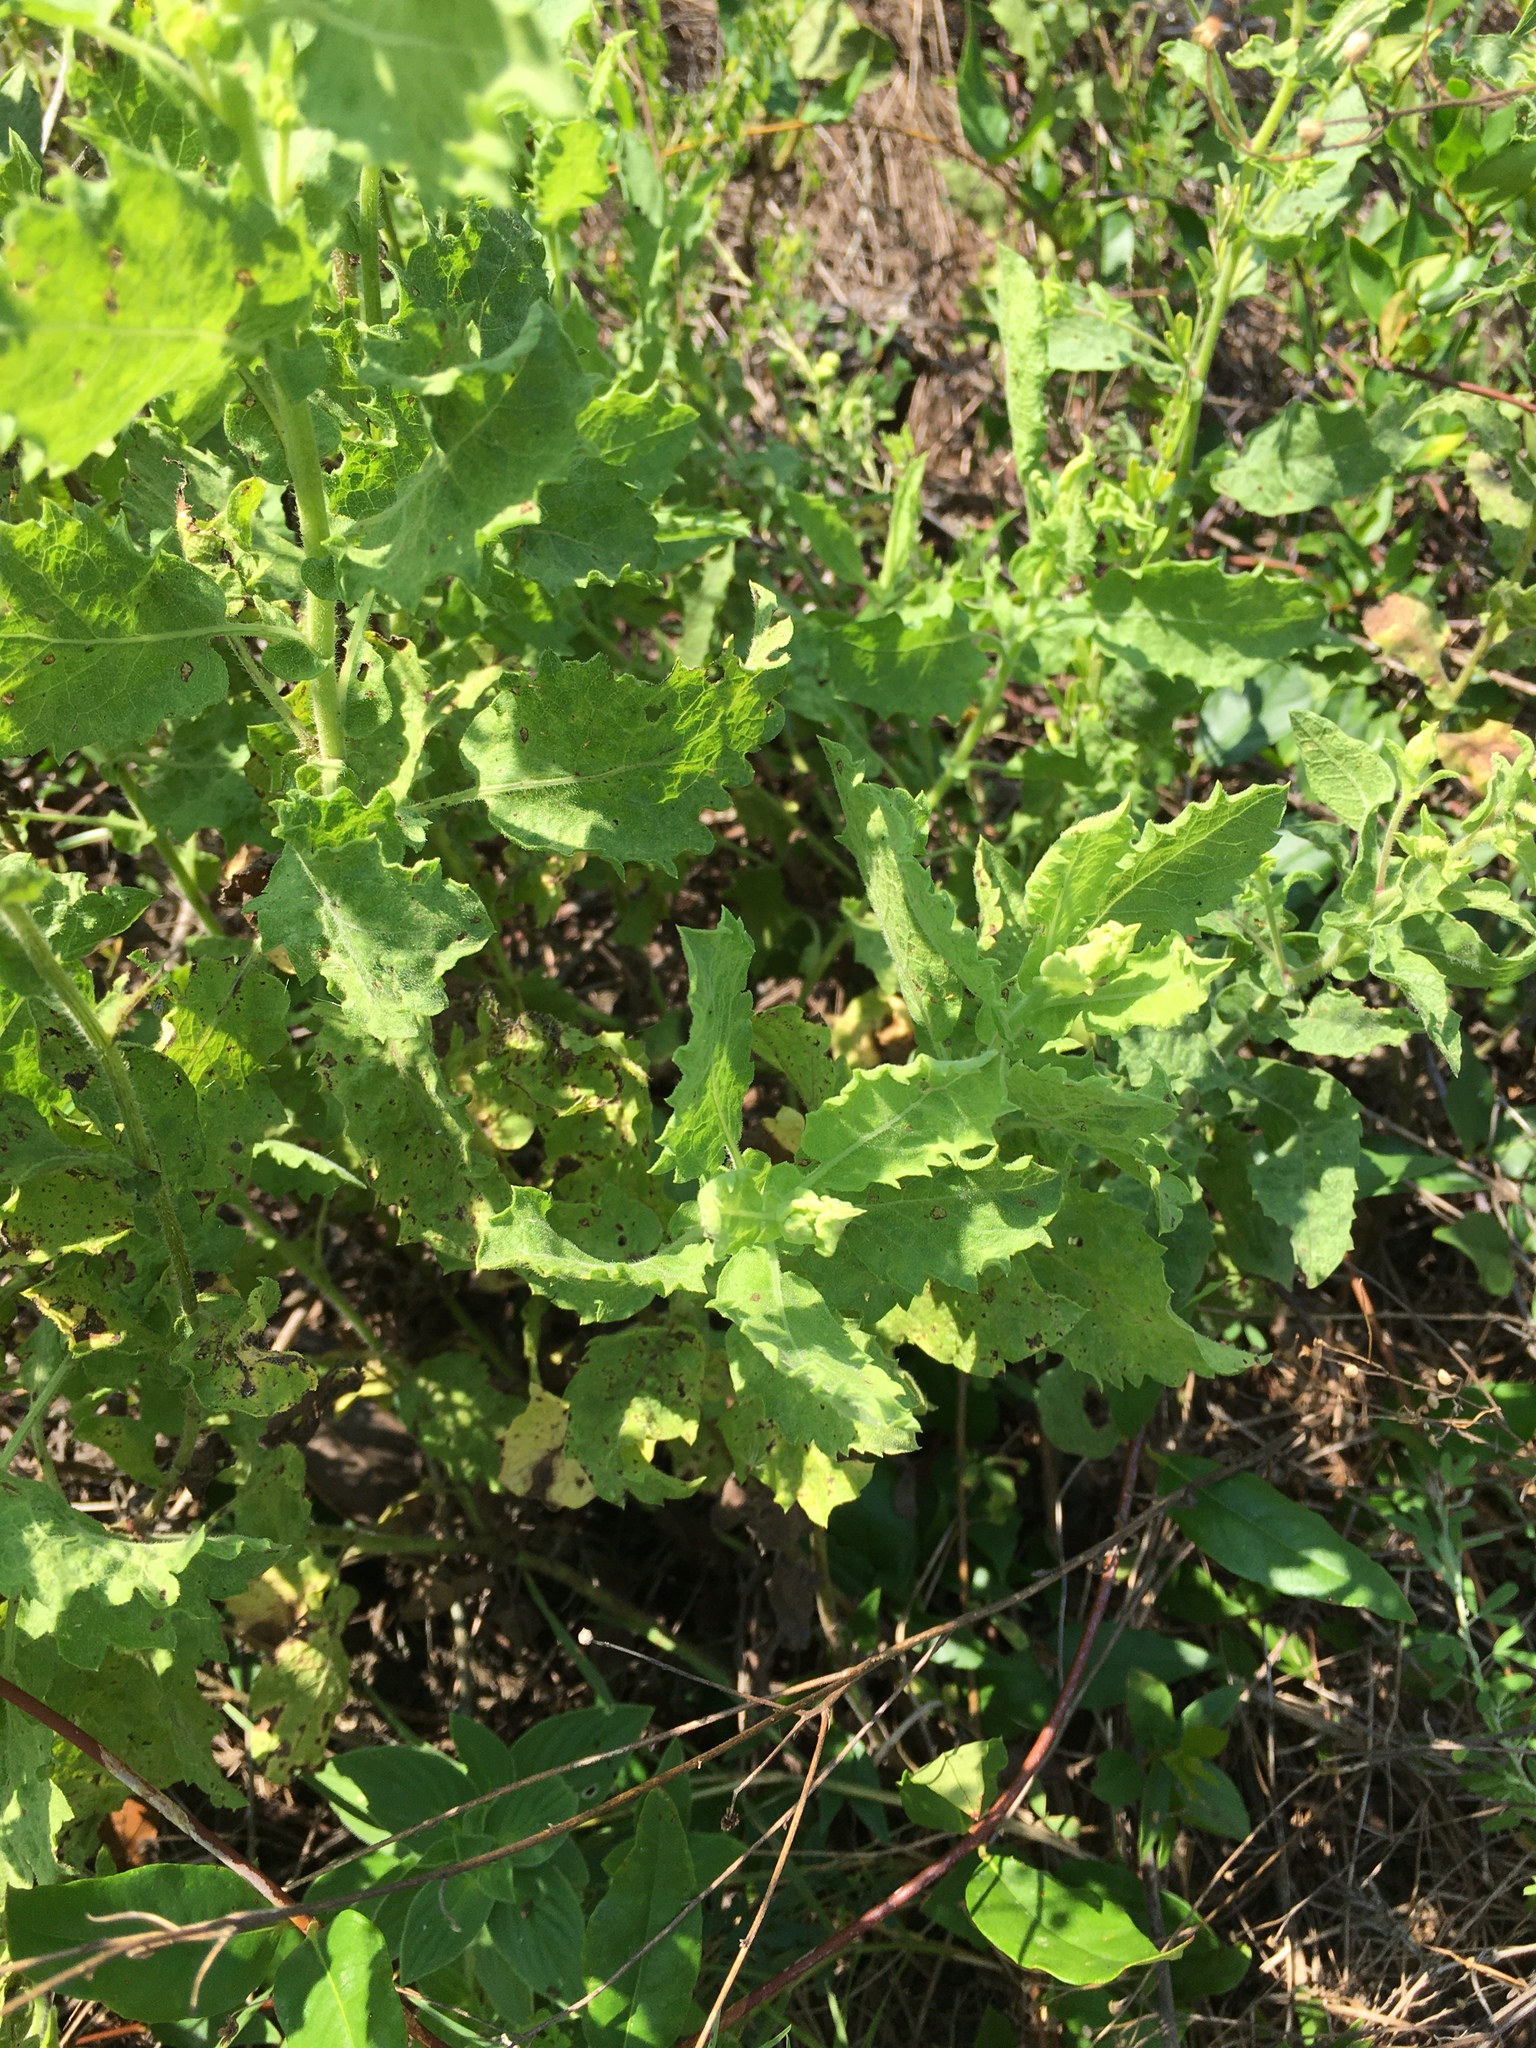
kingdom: Plantae
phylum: Tracheophyta
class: Magnoliopsida
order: Asterales
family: Asteraceae
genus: Heterotheca
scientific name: Heterotheca subaxillaris
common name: Camphorweed
